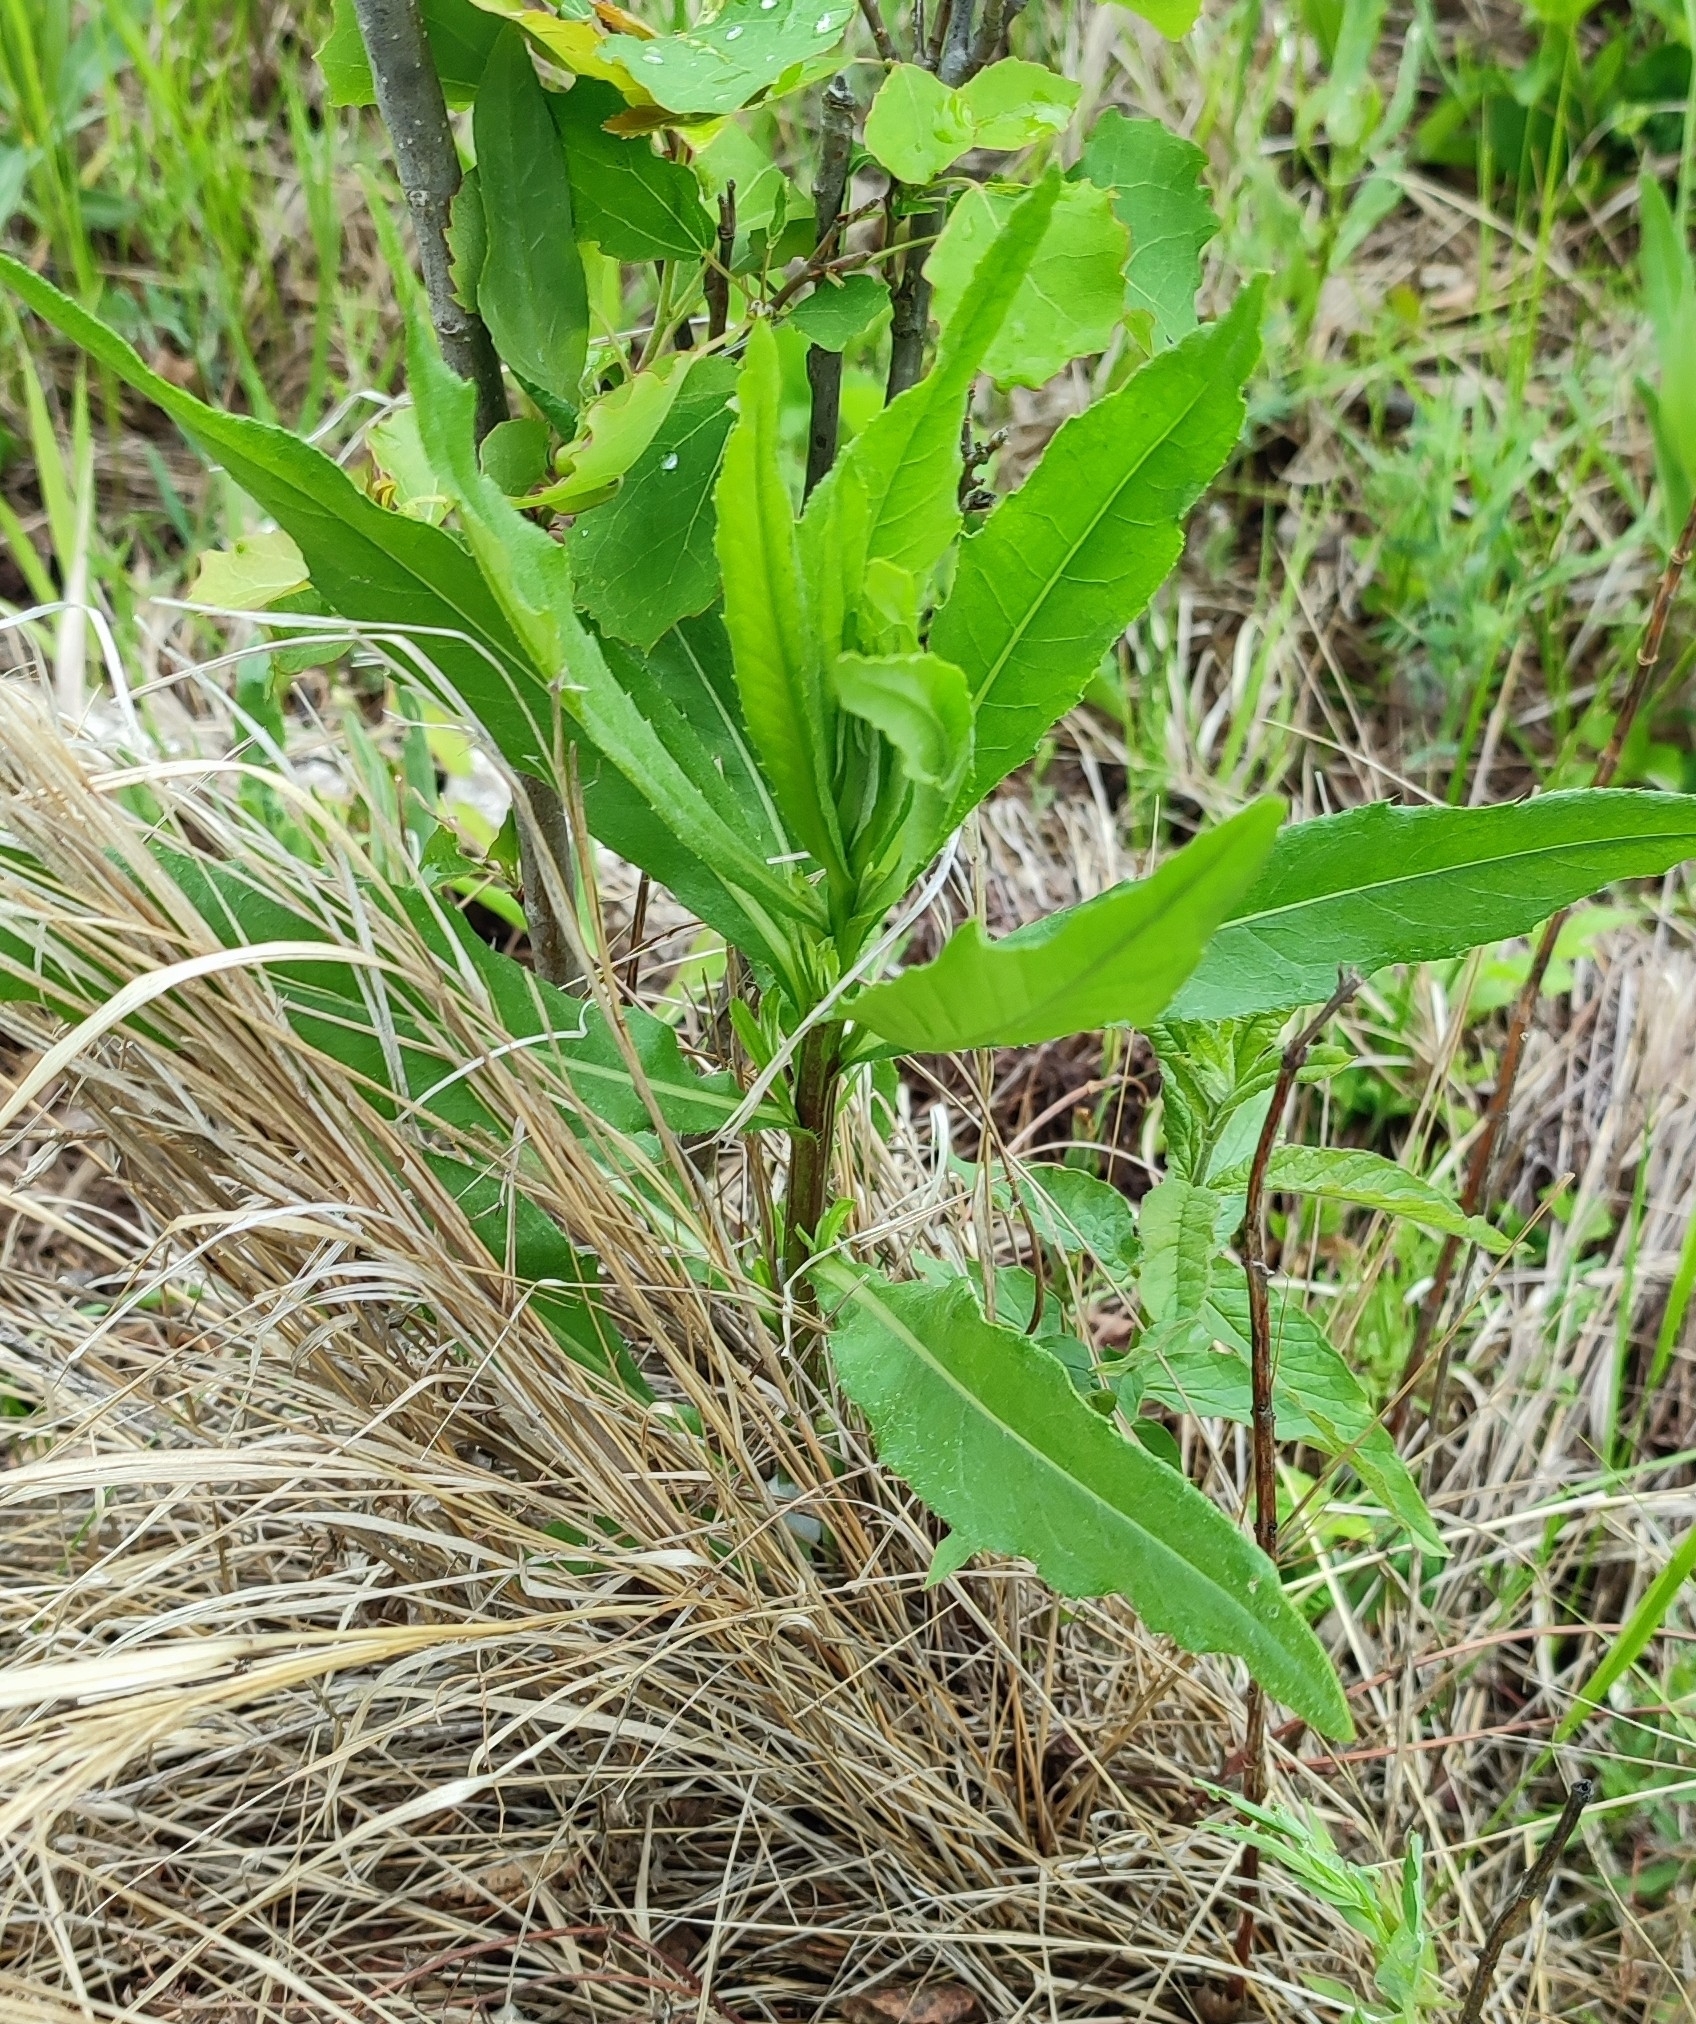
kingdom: Plantae
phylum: Tracheophyta
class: Magnoliopsida
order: Asterales
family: Asteraceae
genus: Cirsium
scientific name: Cirsium arvense
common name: Creeping thistle
